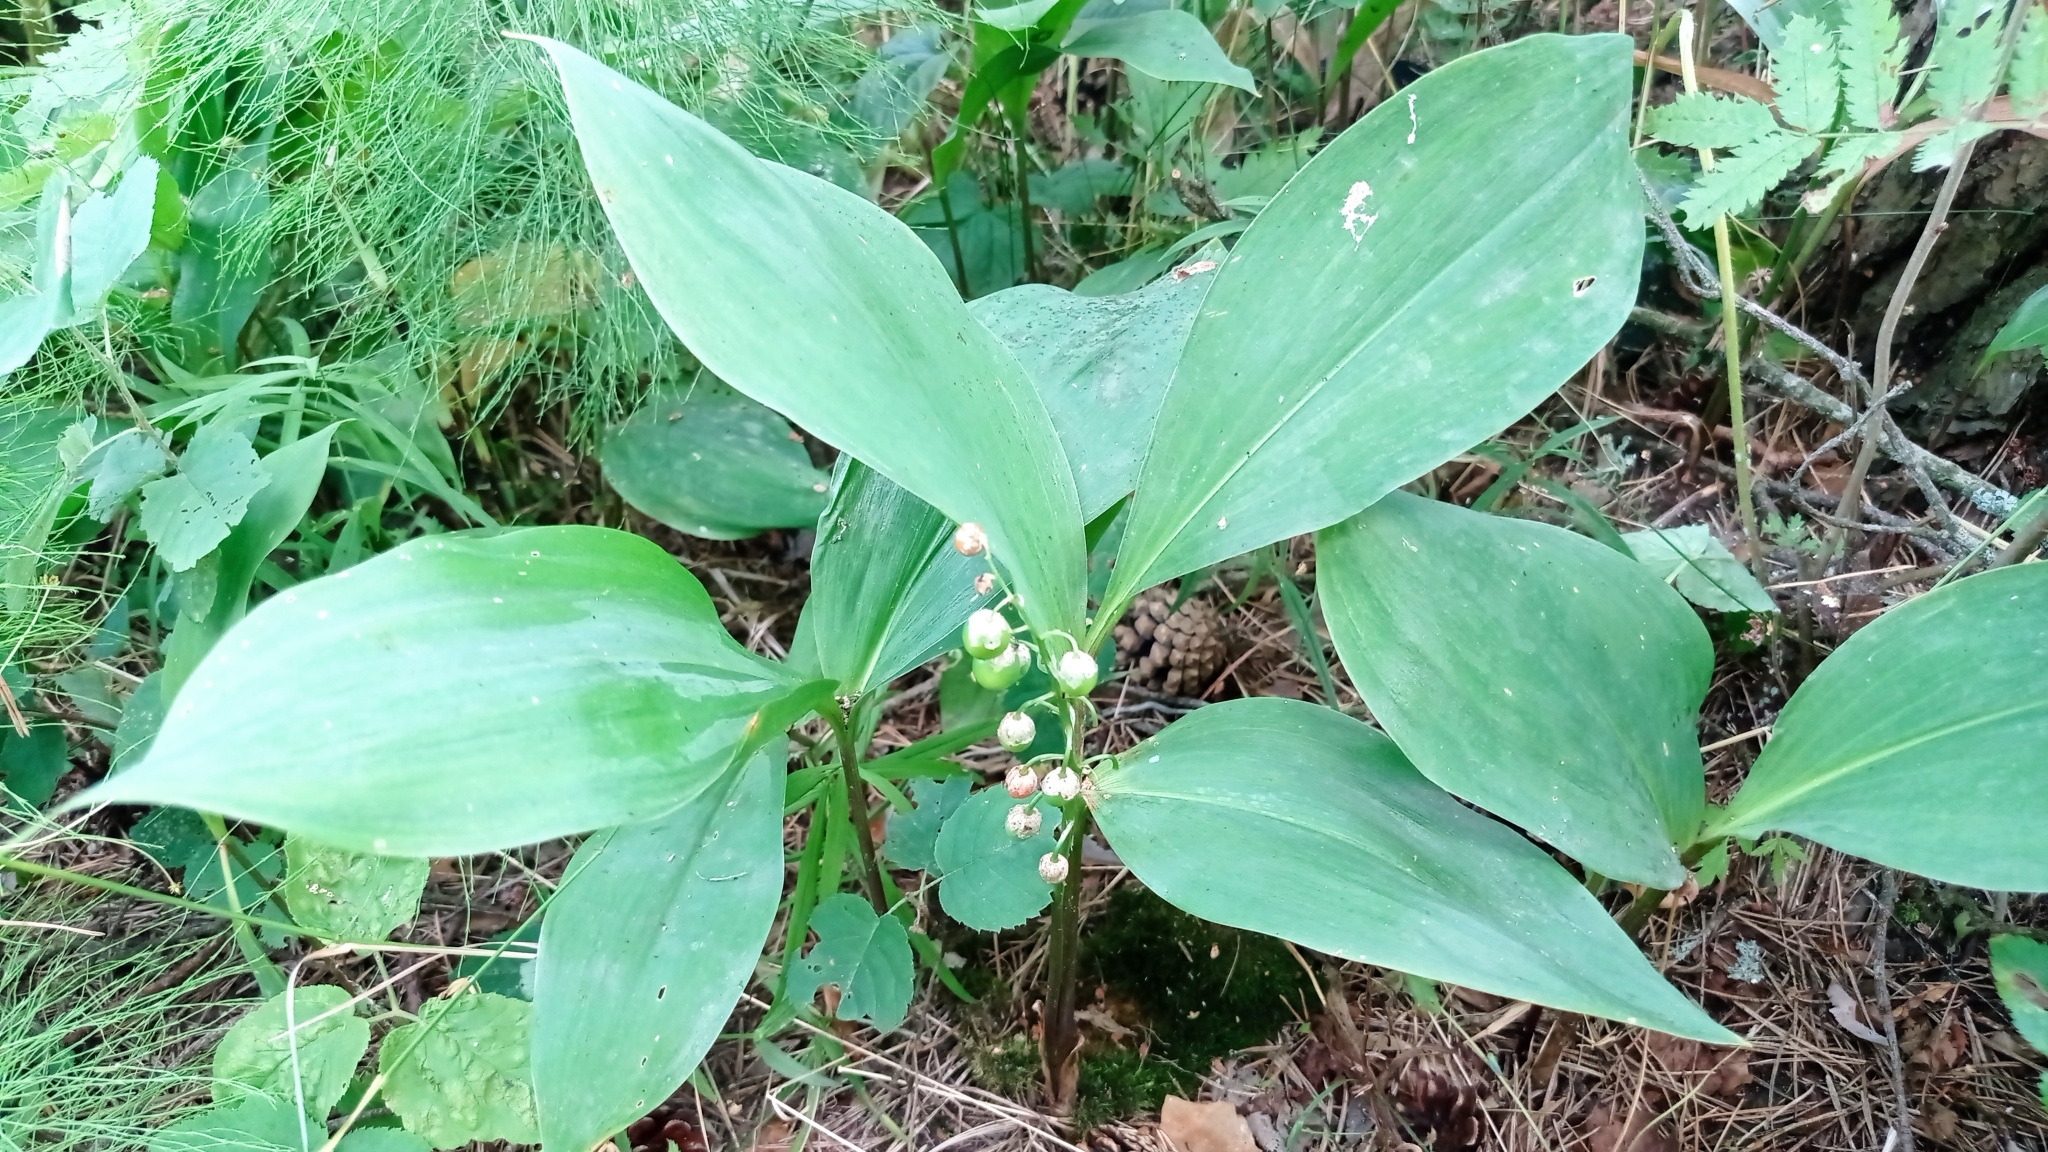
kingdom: Plantae
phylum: Tracheophyta
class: Liliopsida
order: Asparagales
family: Asparagaceae
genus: Convallaria
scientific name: Convallaria majalis
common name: Lily-of-the-valley
